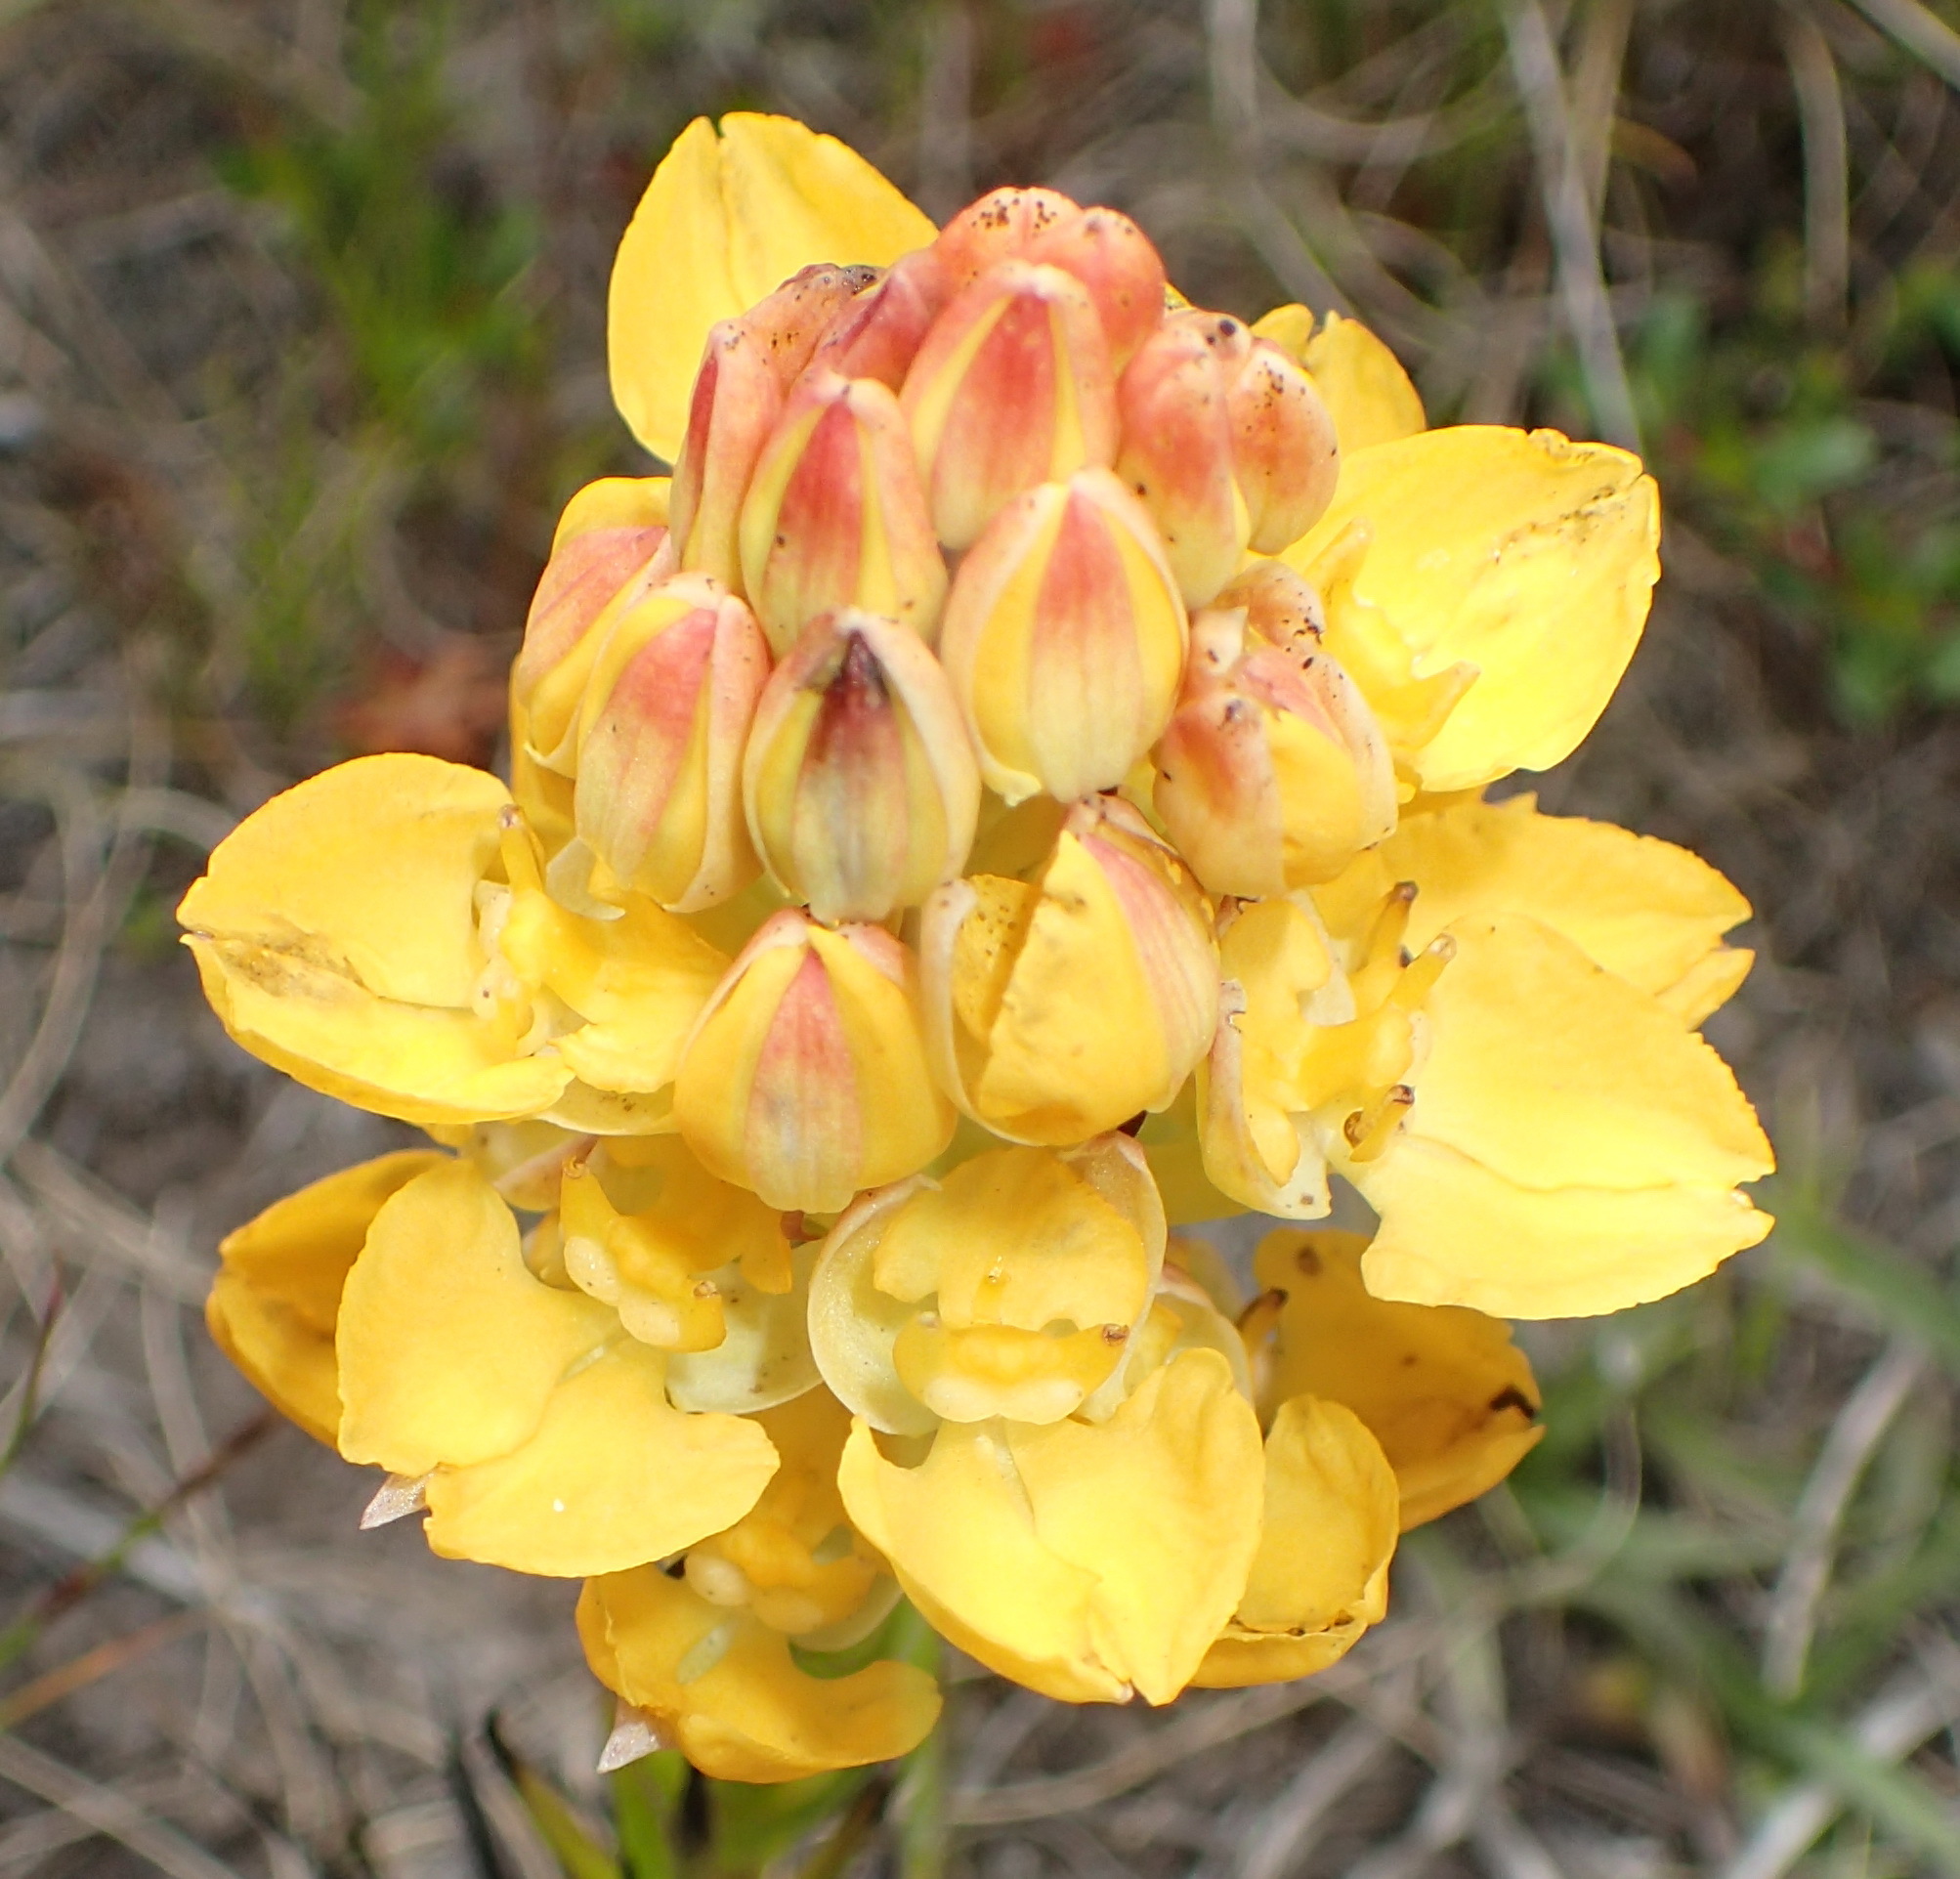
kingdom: Plantae
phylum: Tracheophyta
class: Liliopsida
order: Asparagales
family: Orchidaceae
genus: Ceratandra
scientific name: Ceratandra grandiflora
